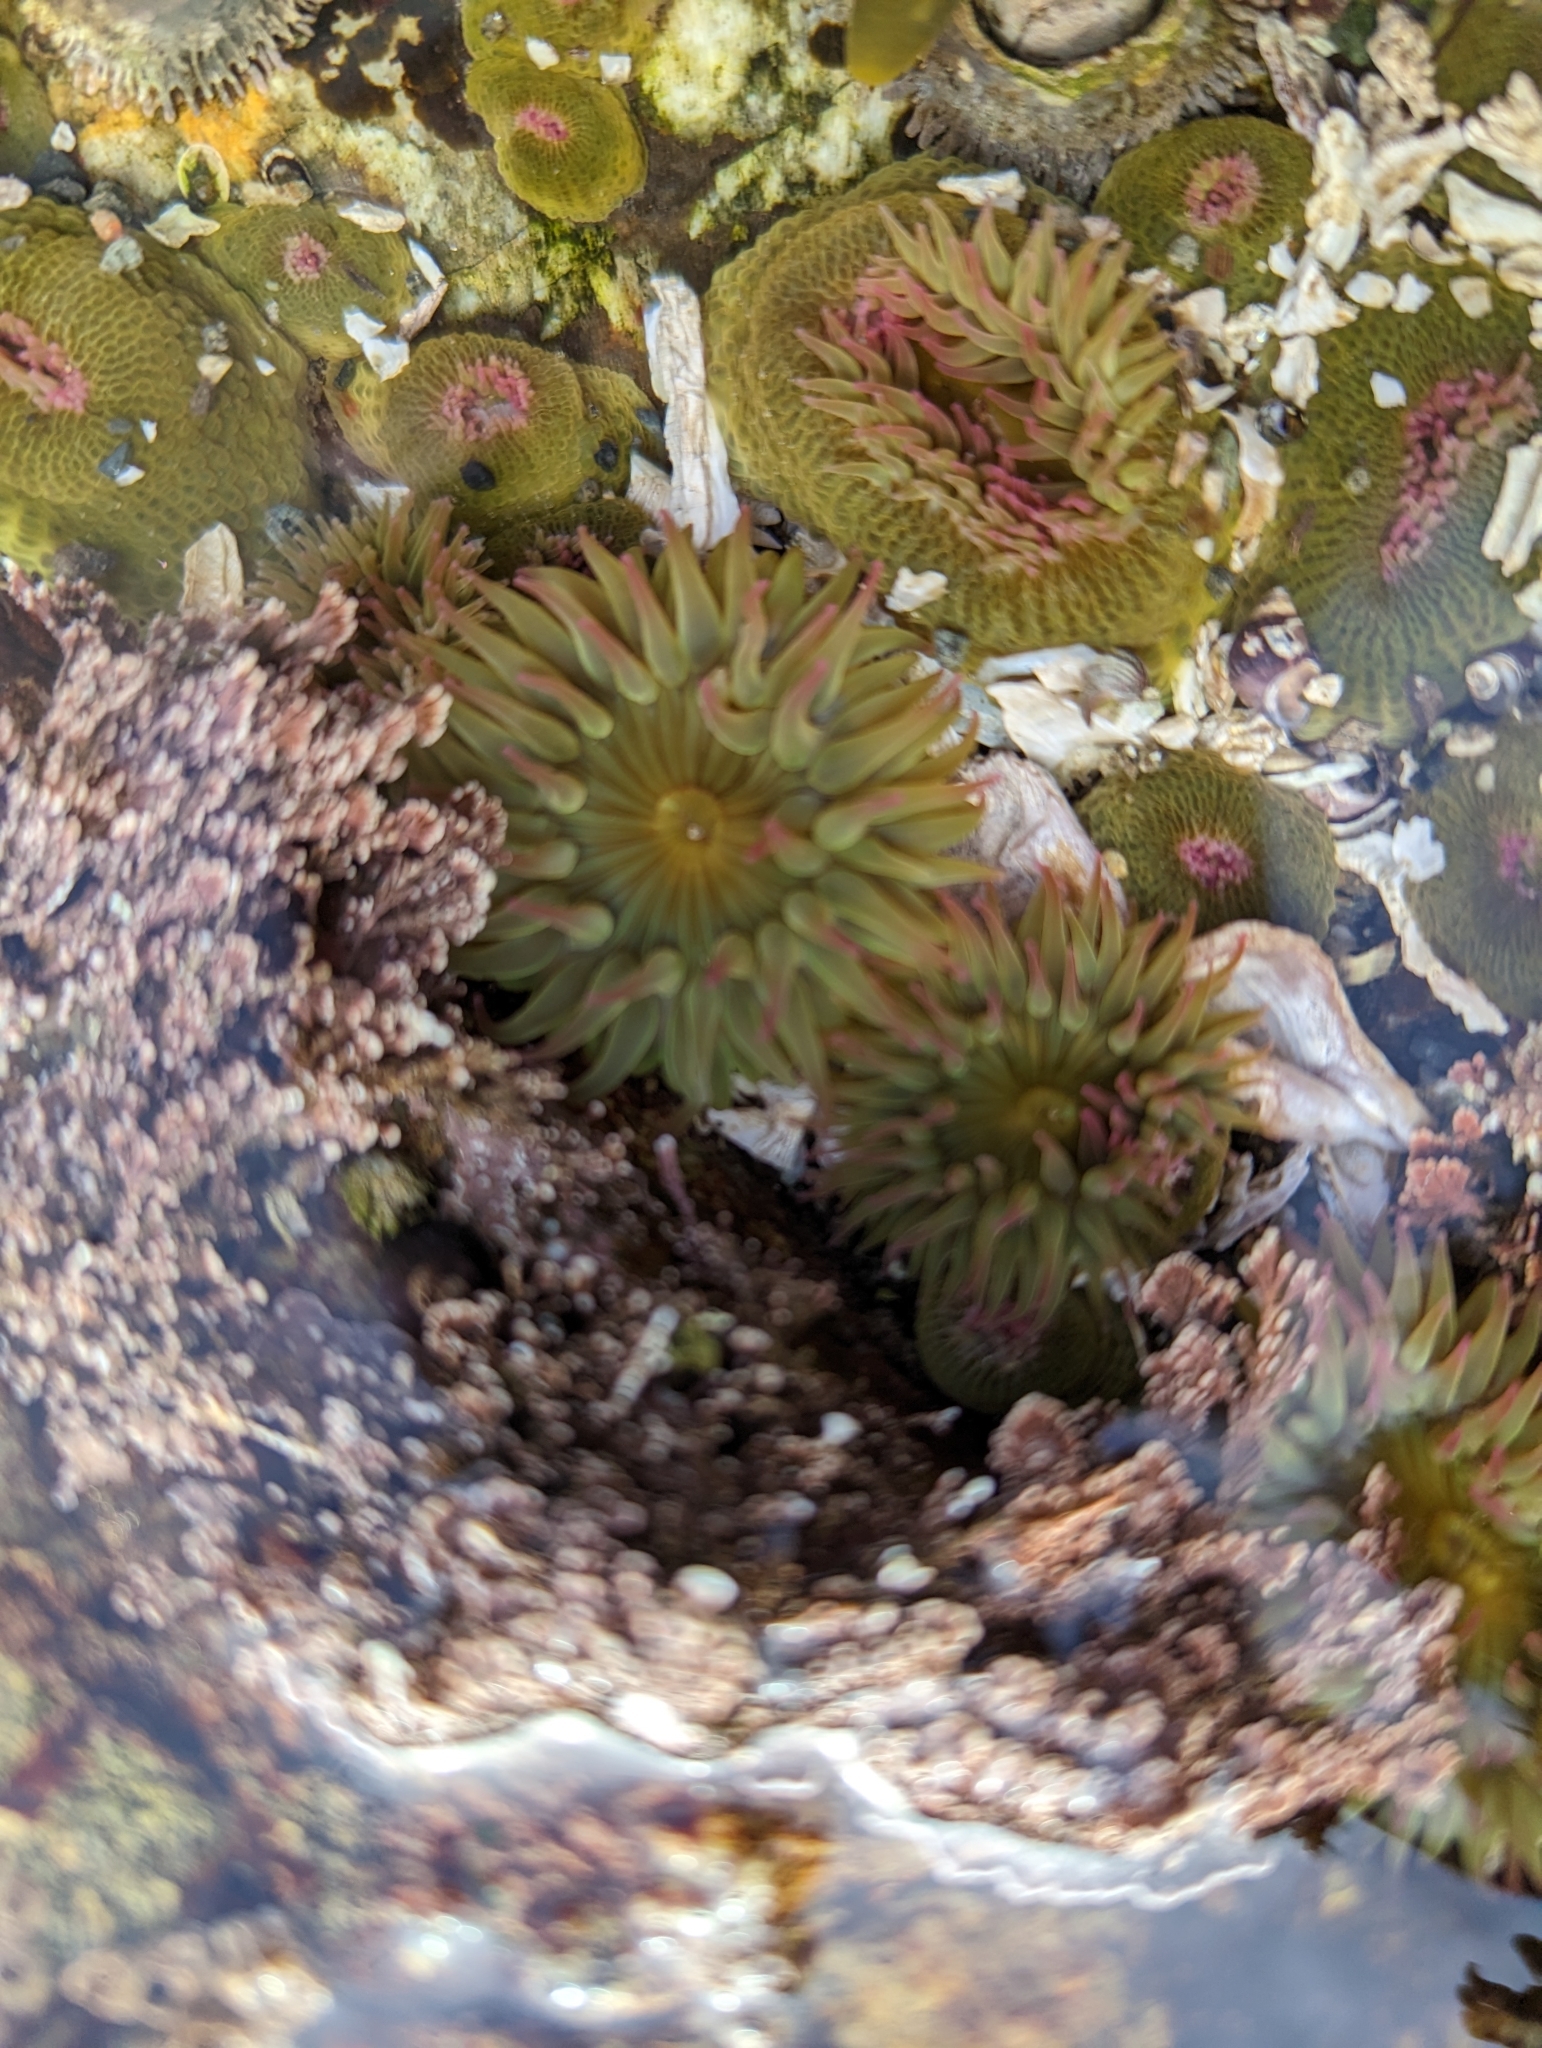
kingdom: Animalia
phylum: Cnidaria
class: Anthozoa
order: Actiniaria
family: Actiniidae
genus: Anthopleura
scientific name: Anthopleura elegantissima
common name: Clonal anemone
